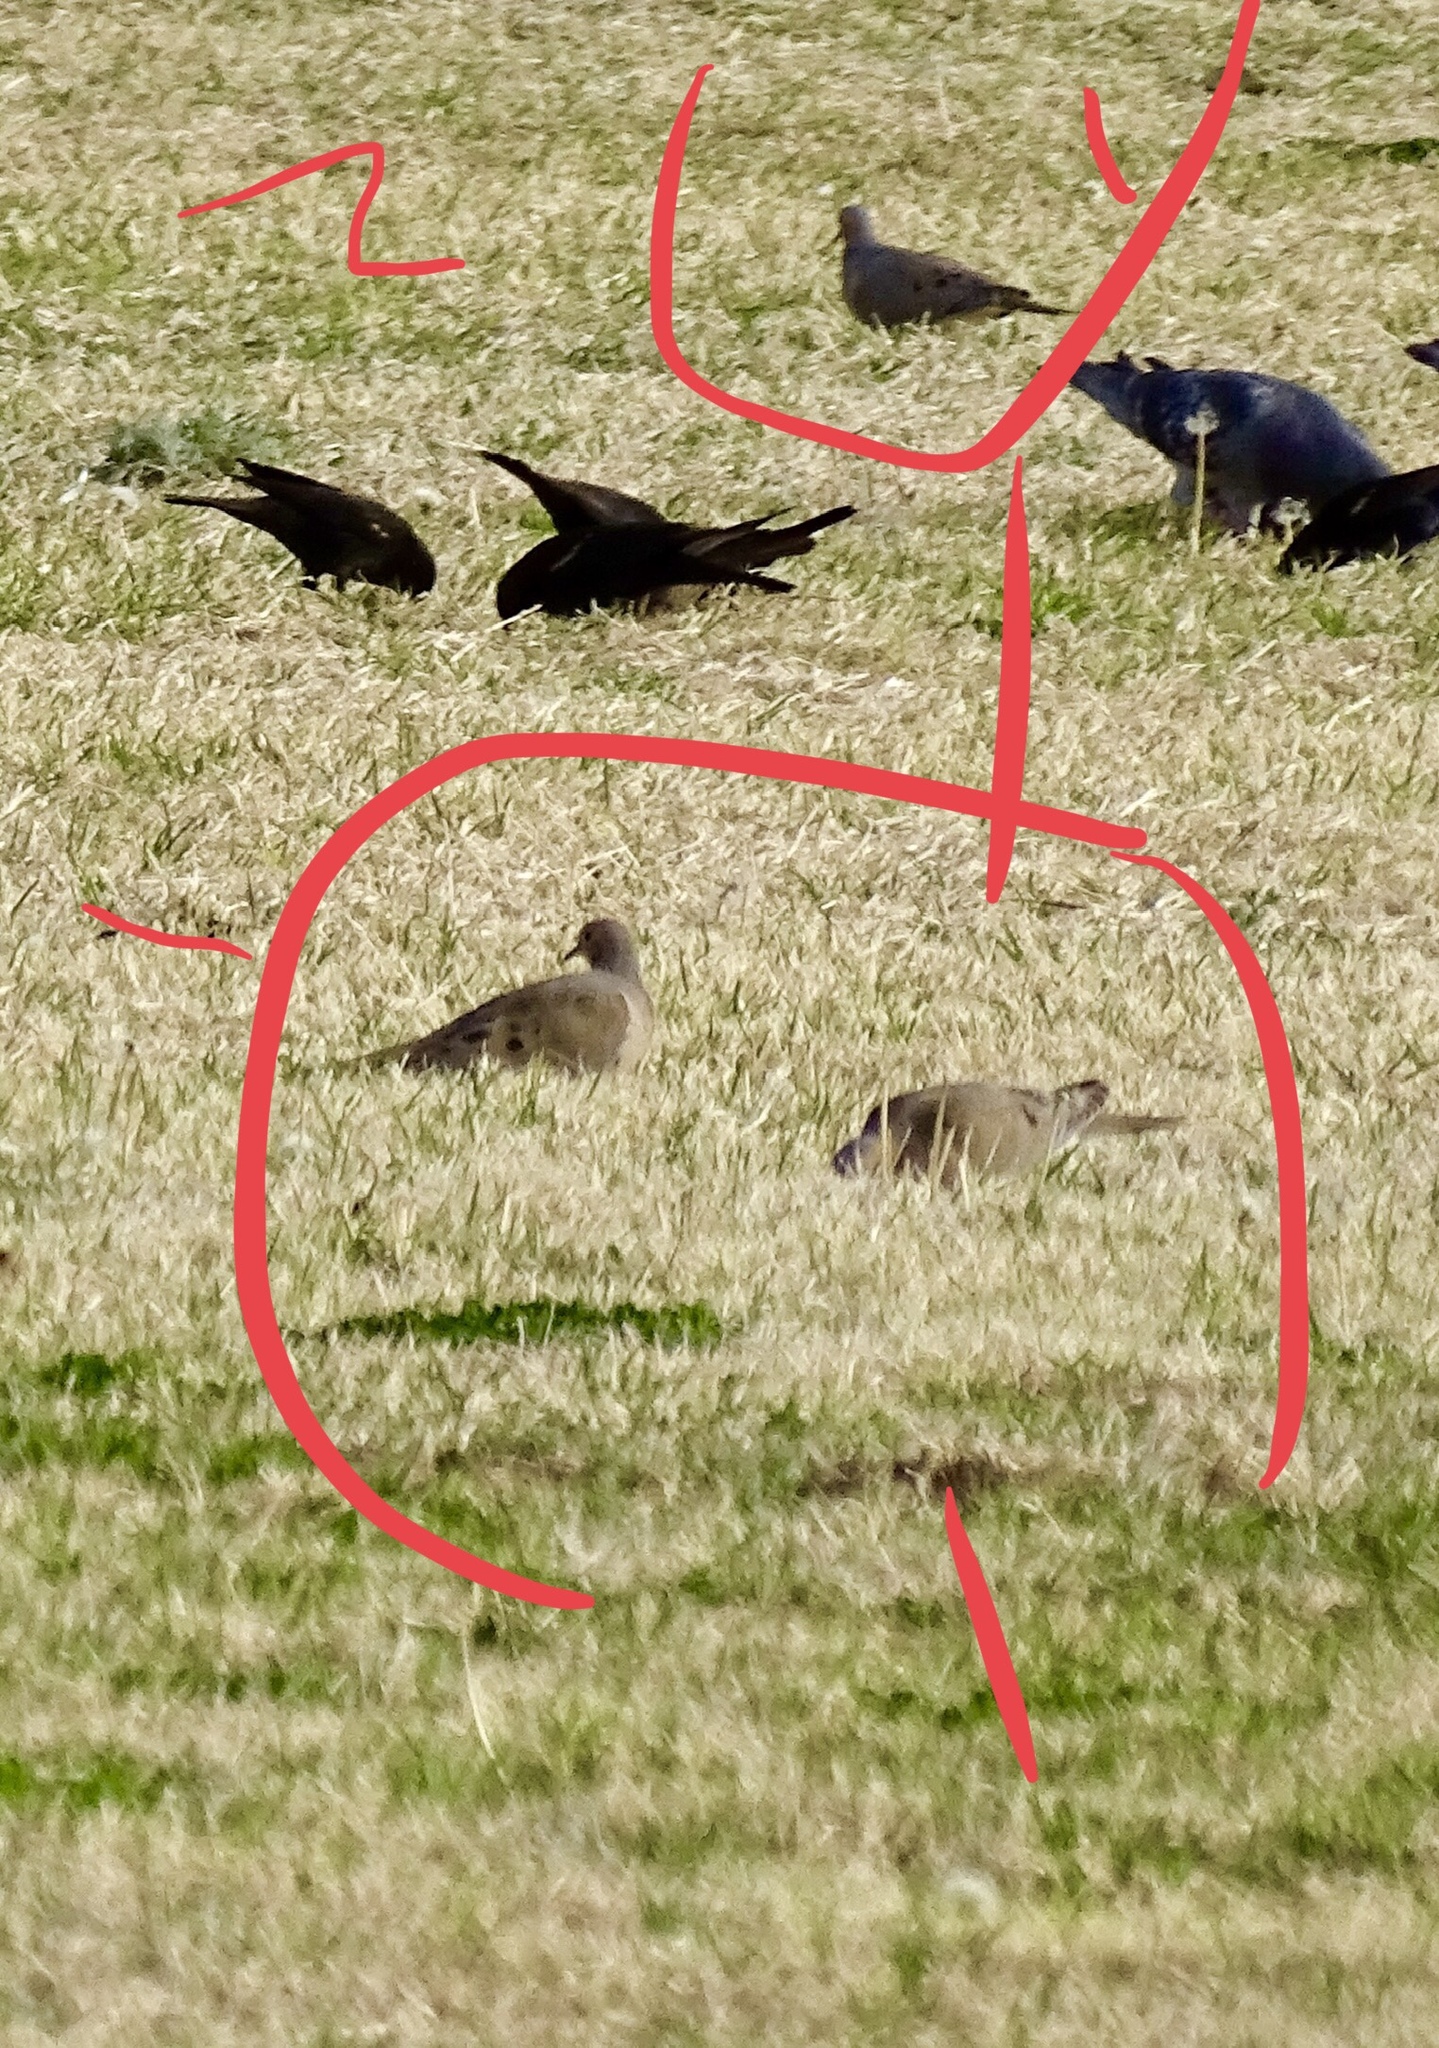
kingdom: Animalia
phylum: Chordata
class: Aves
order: Columbiformes
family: Columbidae
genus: Zenaida
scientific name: Zenaida macroura
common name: Mourning dove
